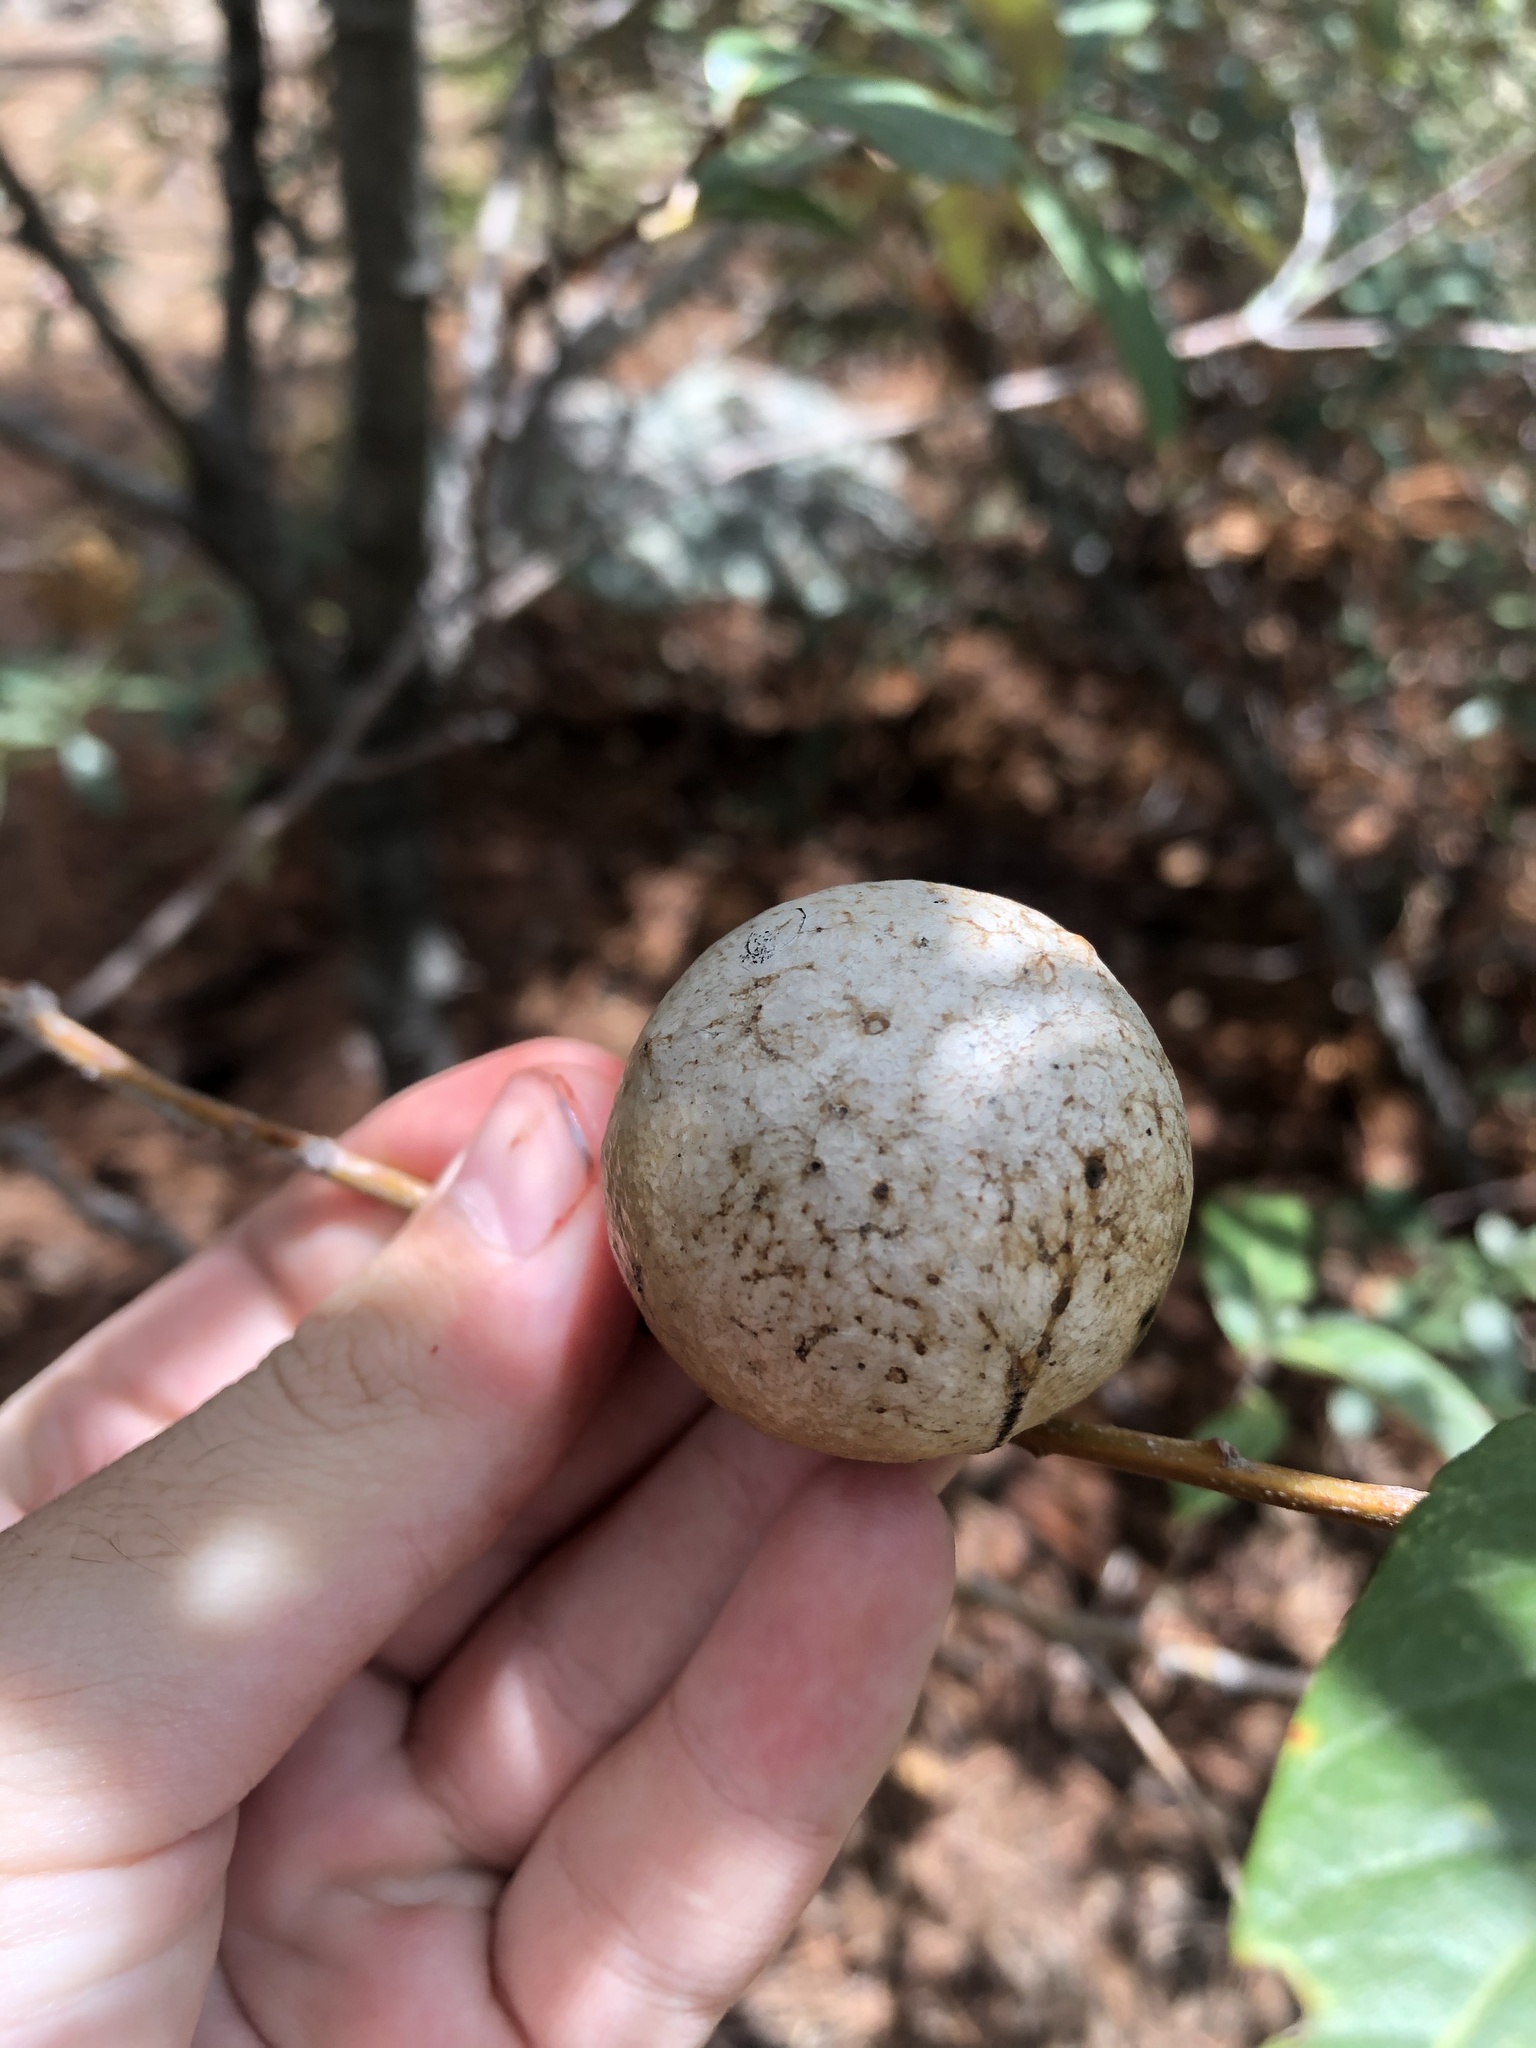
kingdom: Animalia
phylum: Arthropoda
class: Insecta
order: Hymenoptera
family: Cynipidae
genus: Amphibolips
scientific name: Amphibolips
